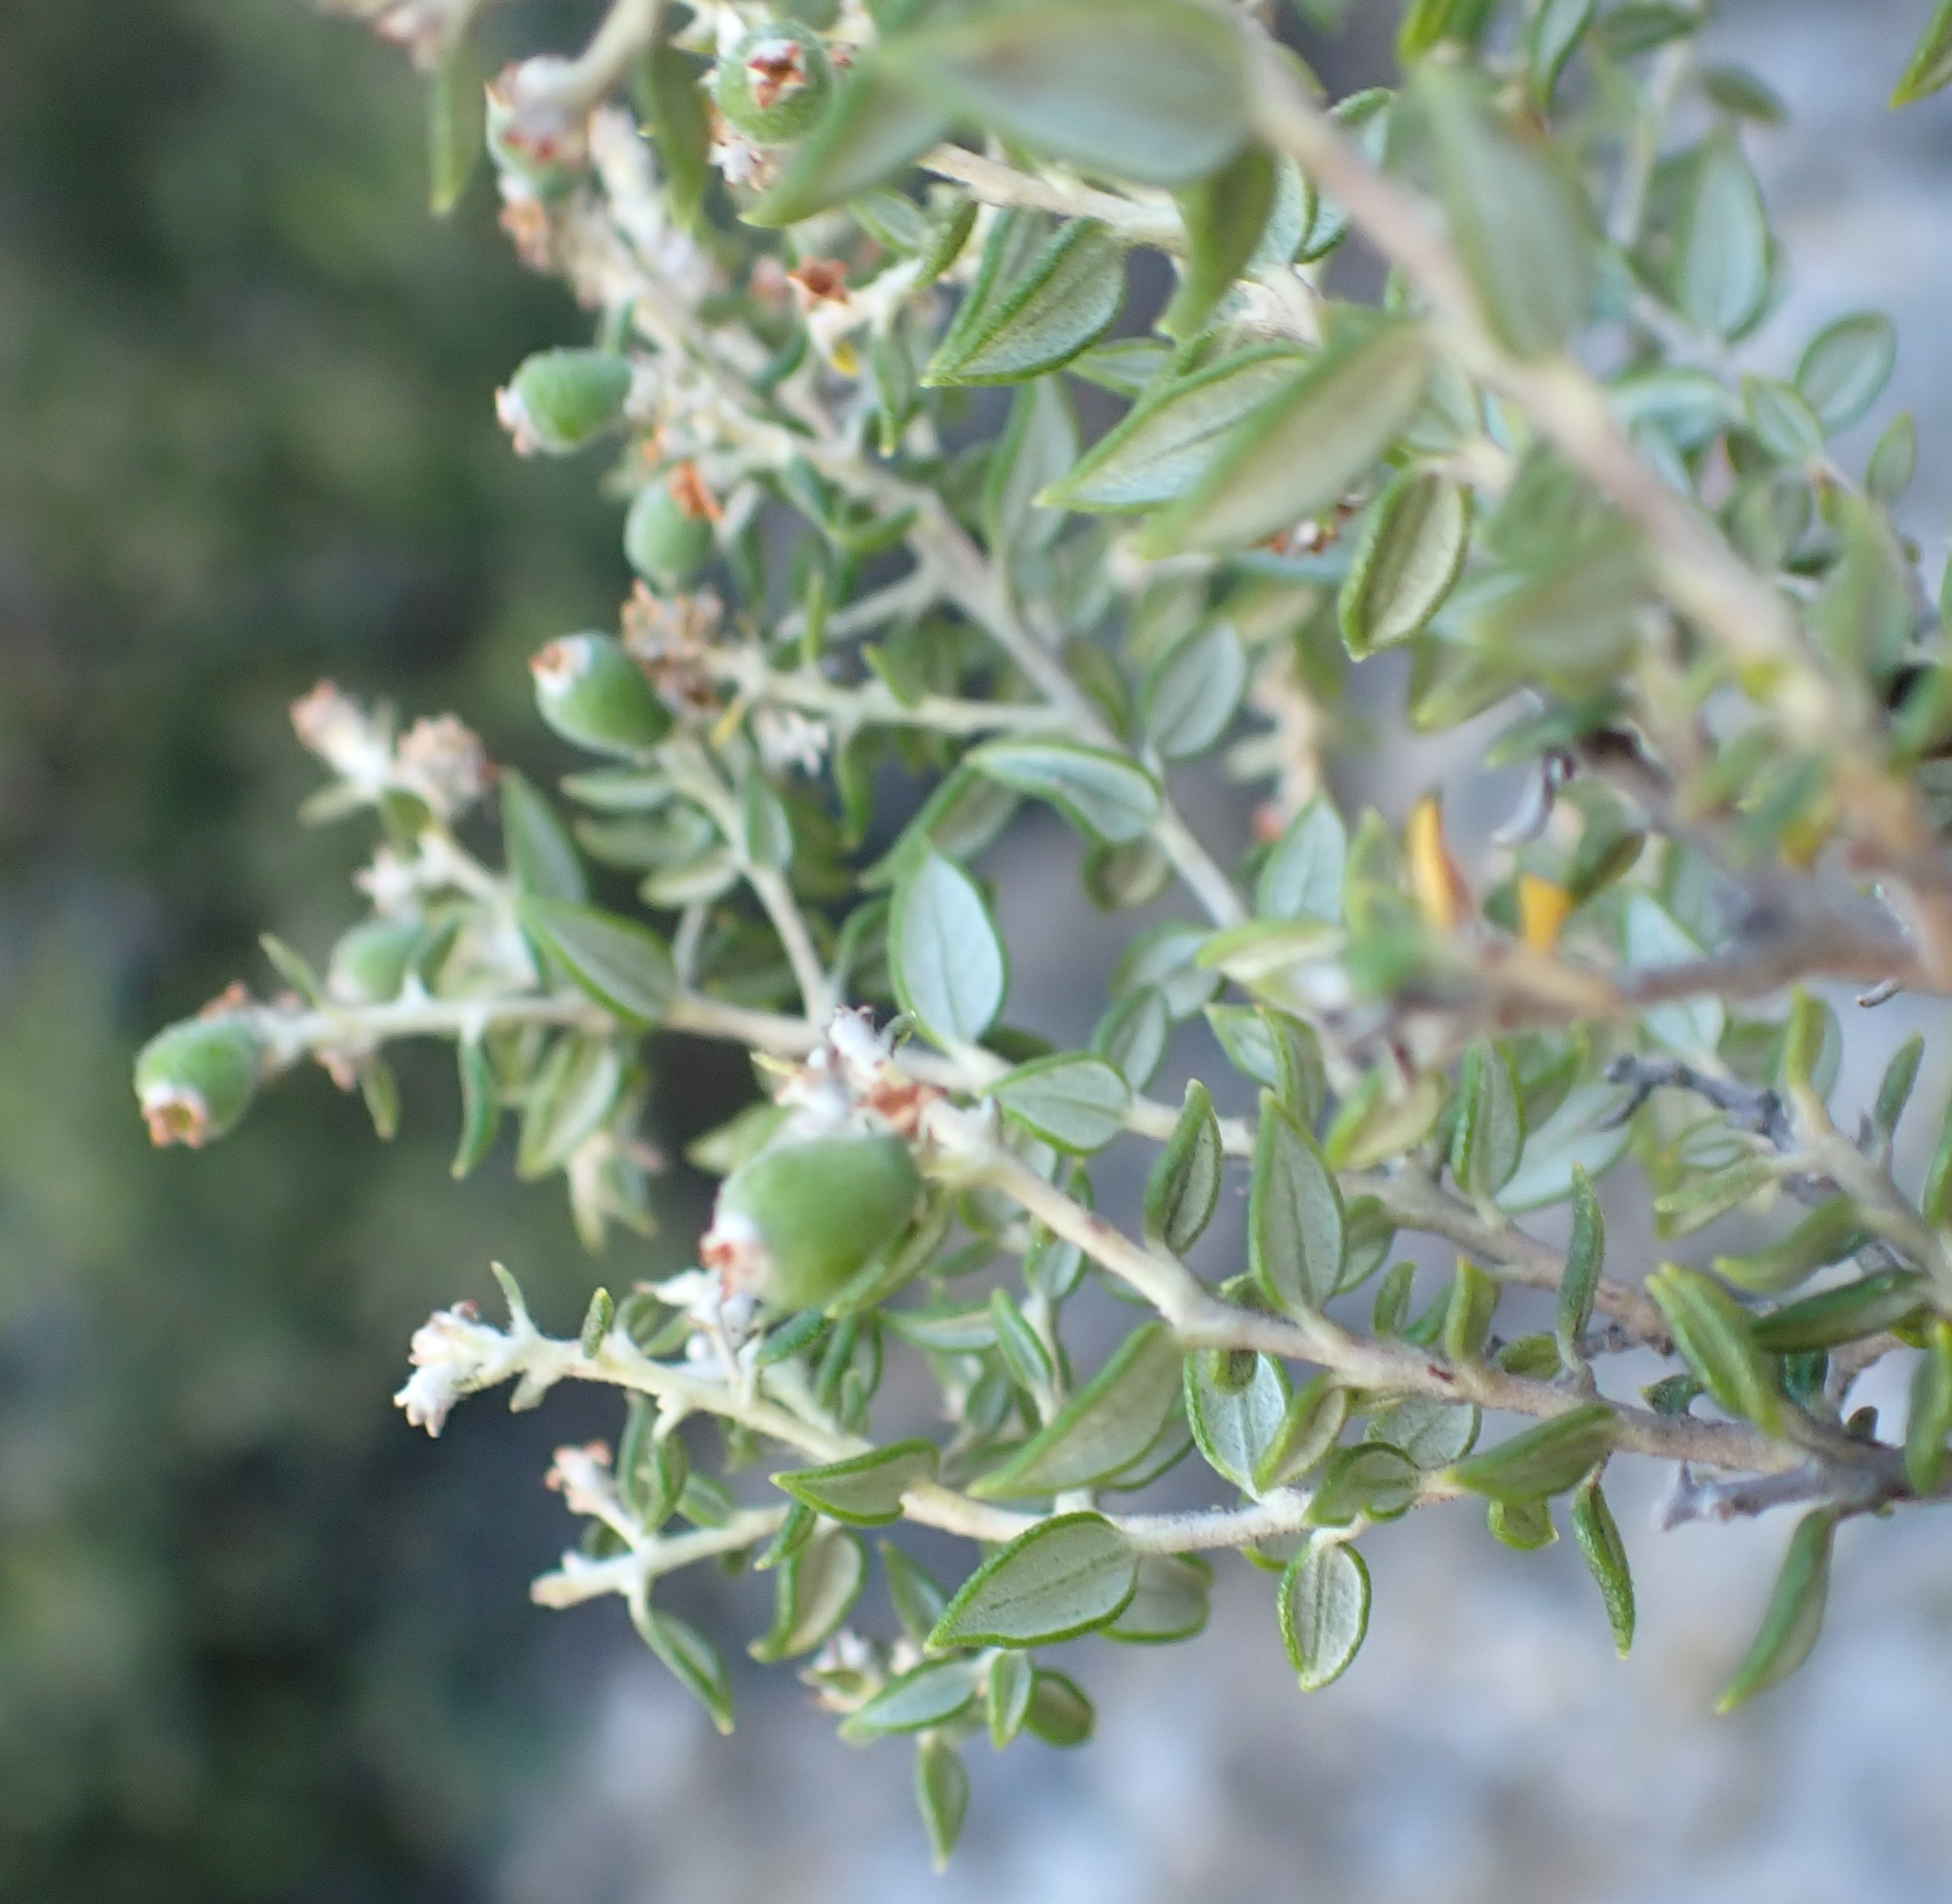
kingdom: Plantae
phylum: Tracheophyta
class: Magnoliopsida
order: Rosales
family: Rhamnaceae
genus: Phylica
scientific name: Phylica paniculata
